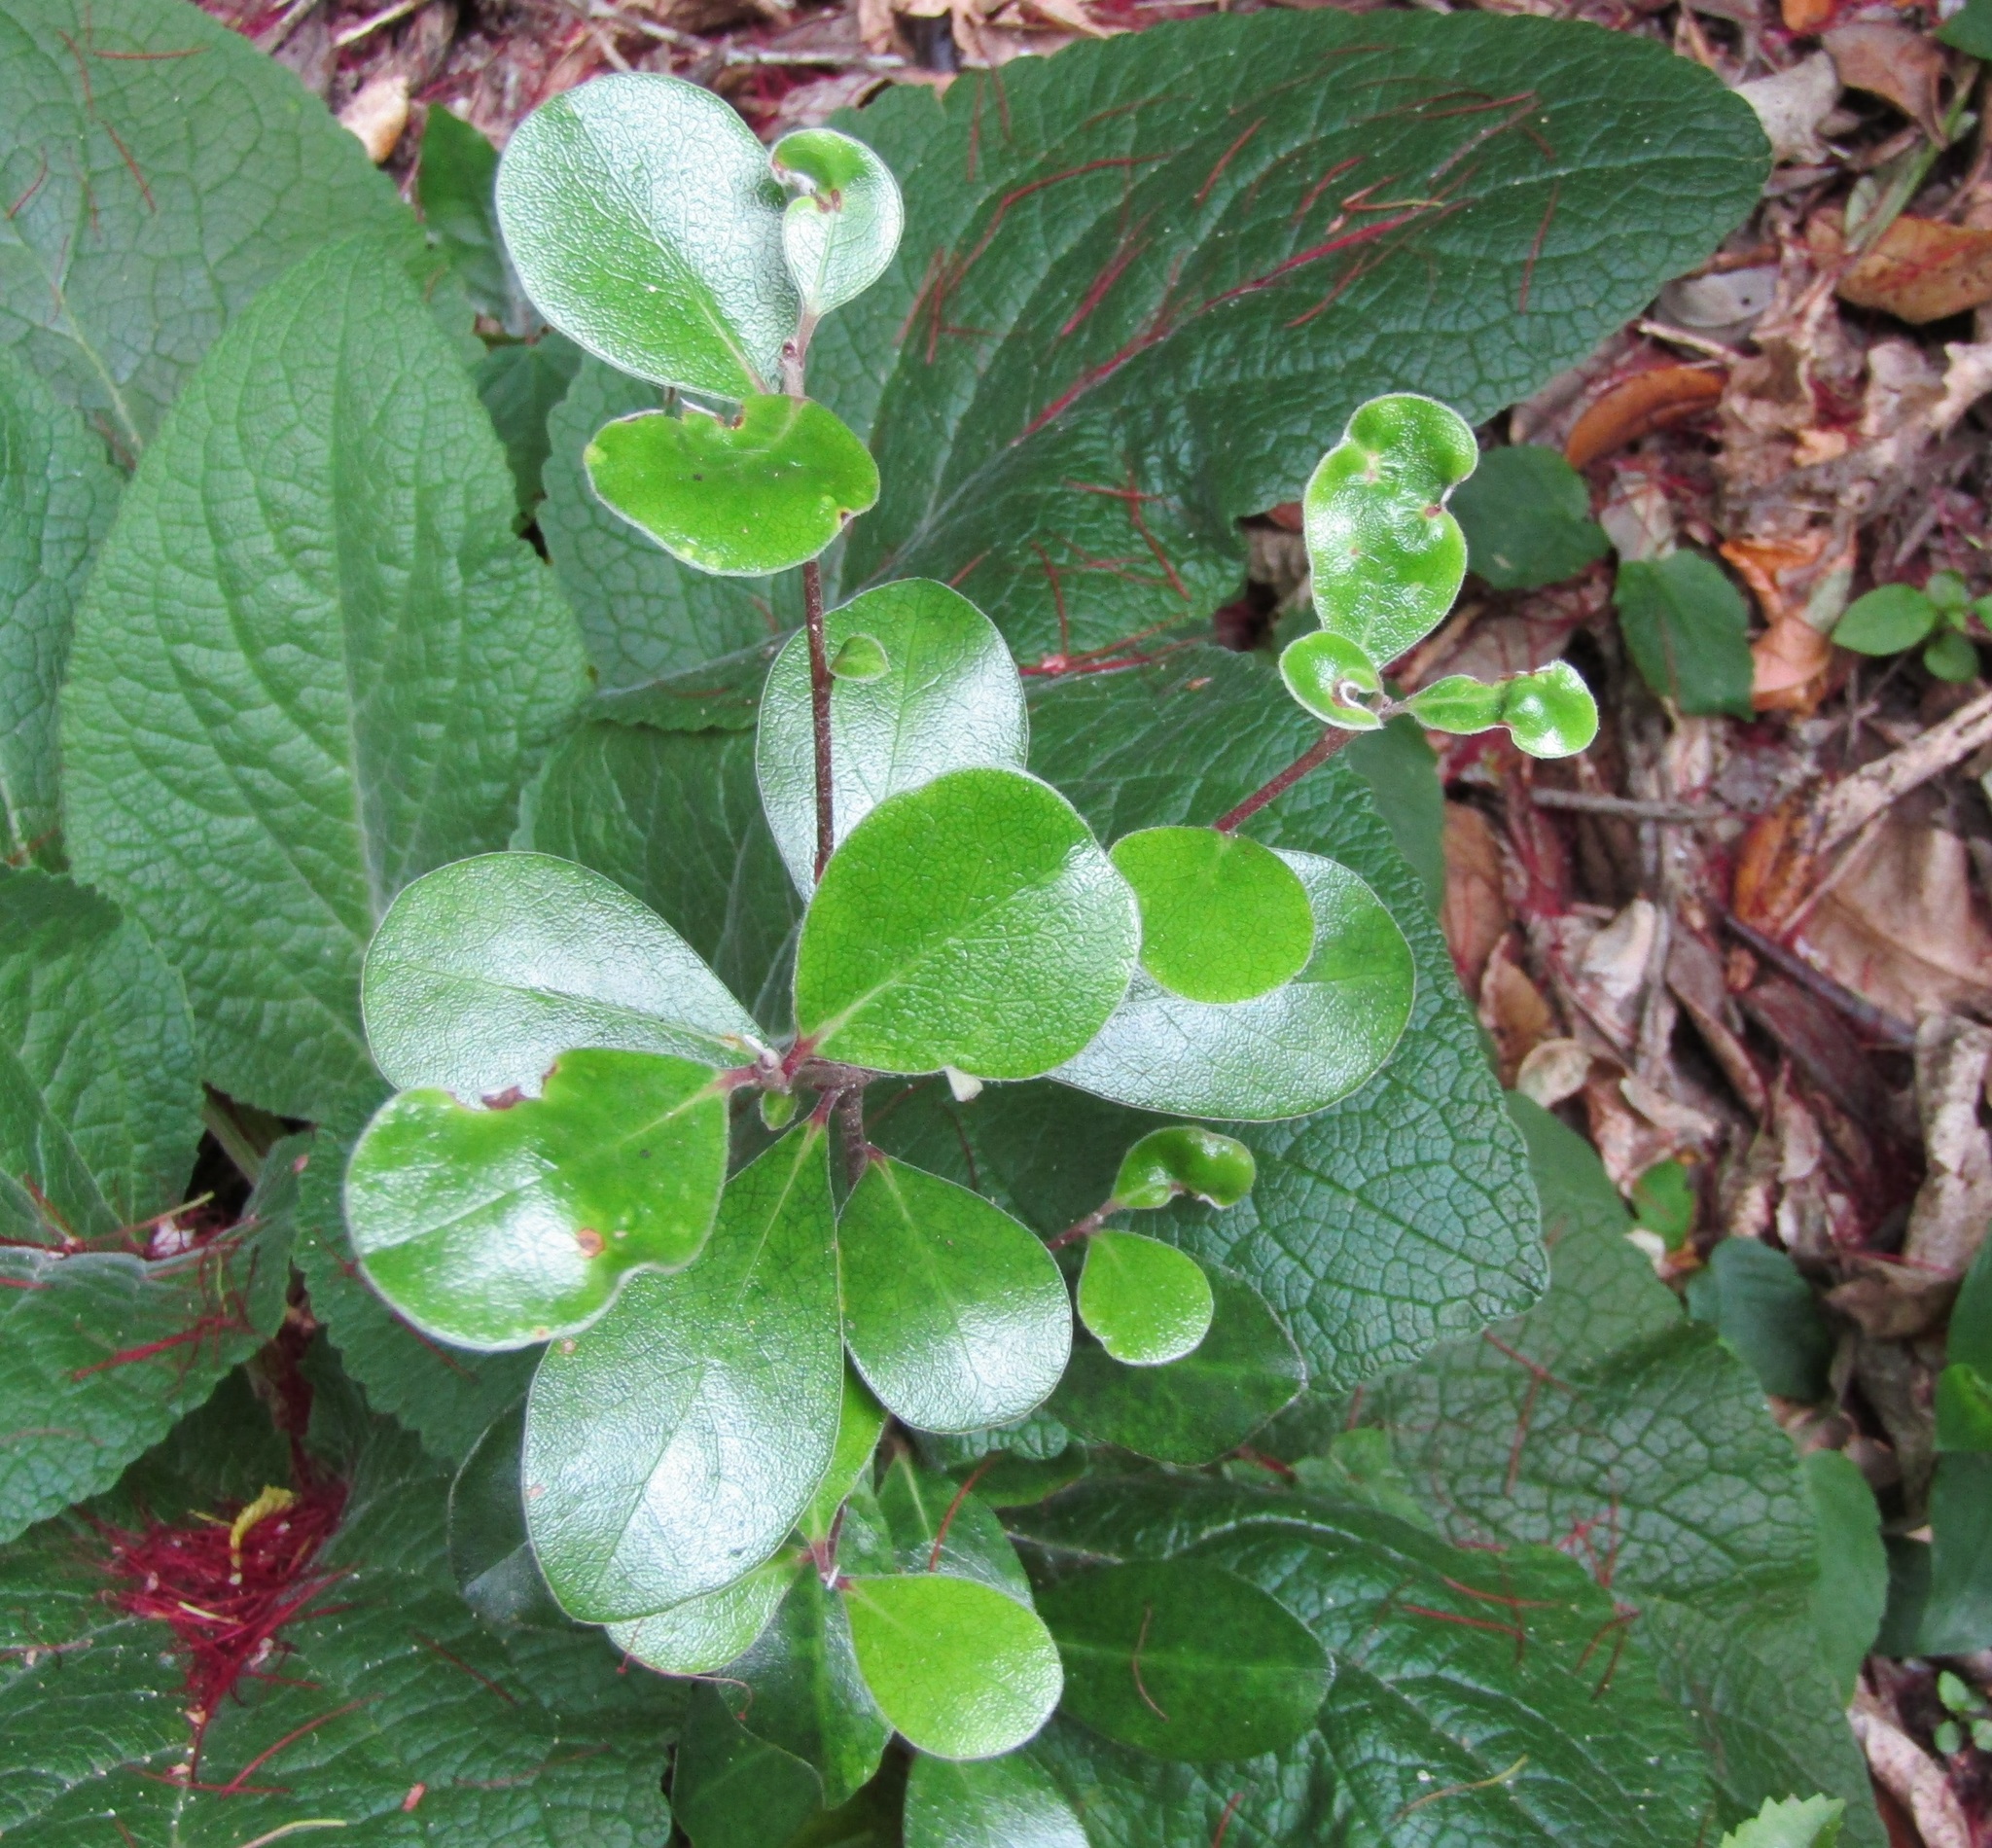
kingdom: Plantae
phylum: Tracheophyta
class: Magnoliopsida
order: Apiales
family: Pittosporaceae
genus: Pittosporum
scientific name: Pittosporum crassifolium
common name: Karo
